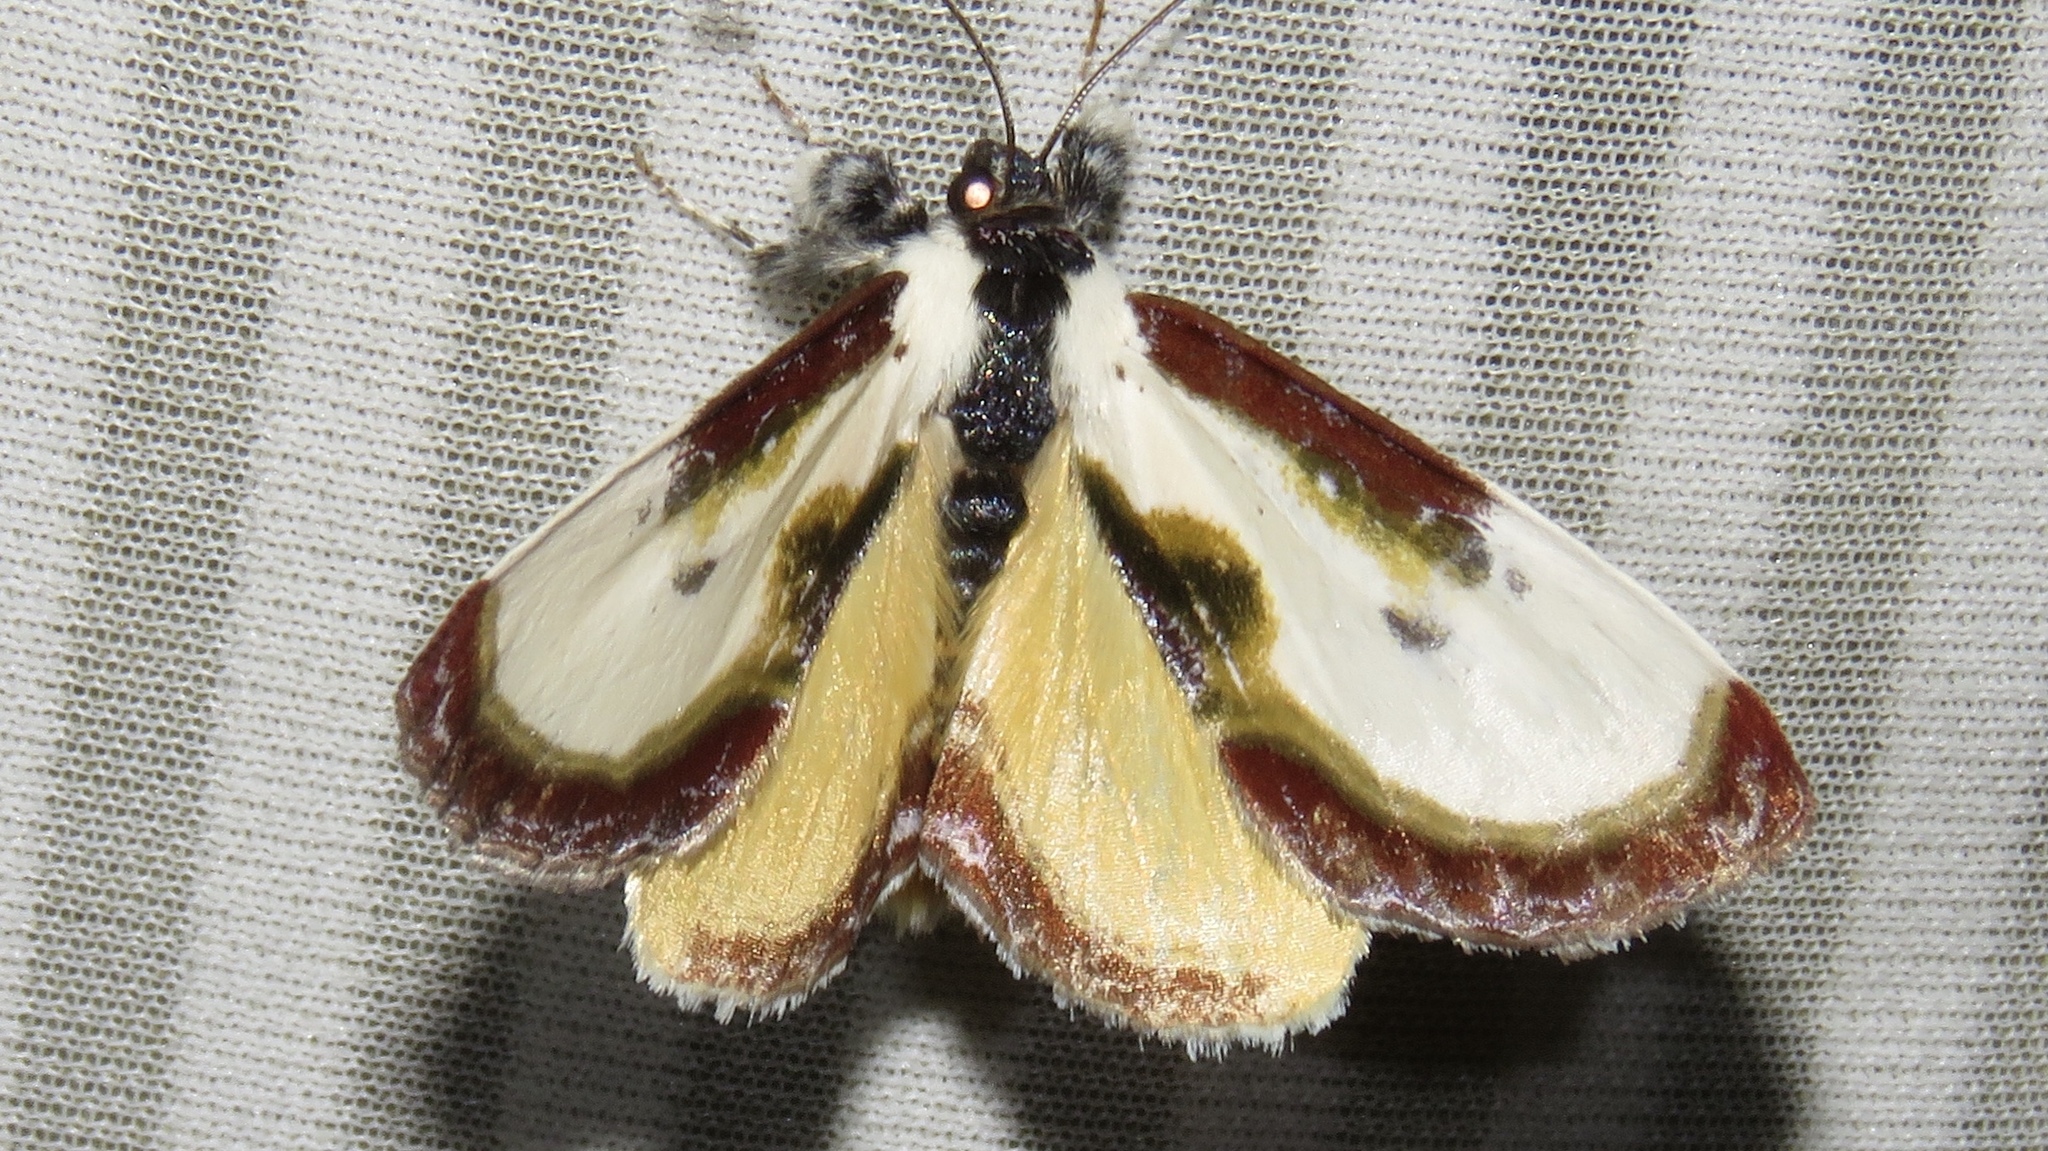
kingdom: Animalia
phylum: Arthropoda
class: Insecta
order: Lepidoptera
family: Noctuidae
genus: Eudryas
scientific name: Eudryas grata
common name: Beautiful wood-nymph
